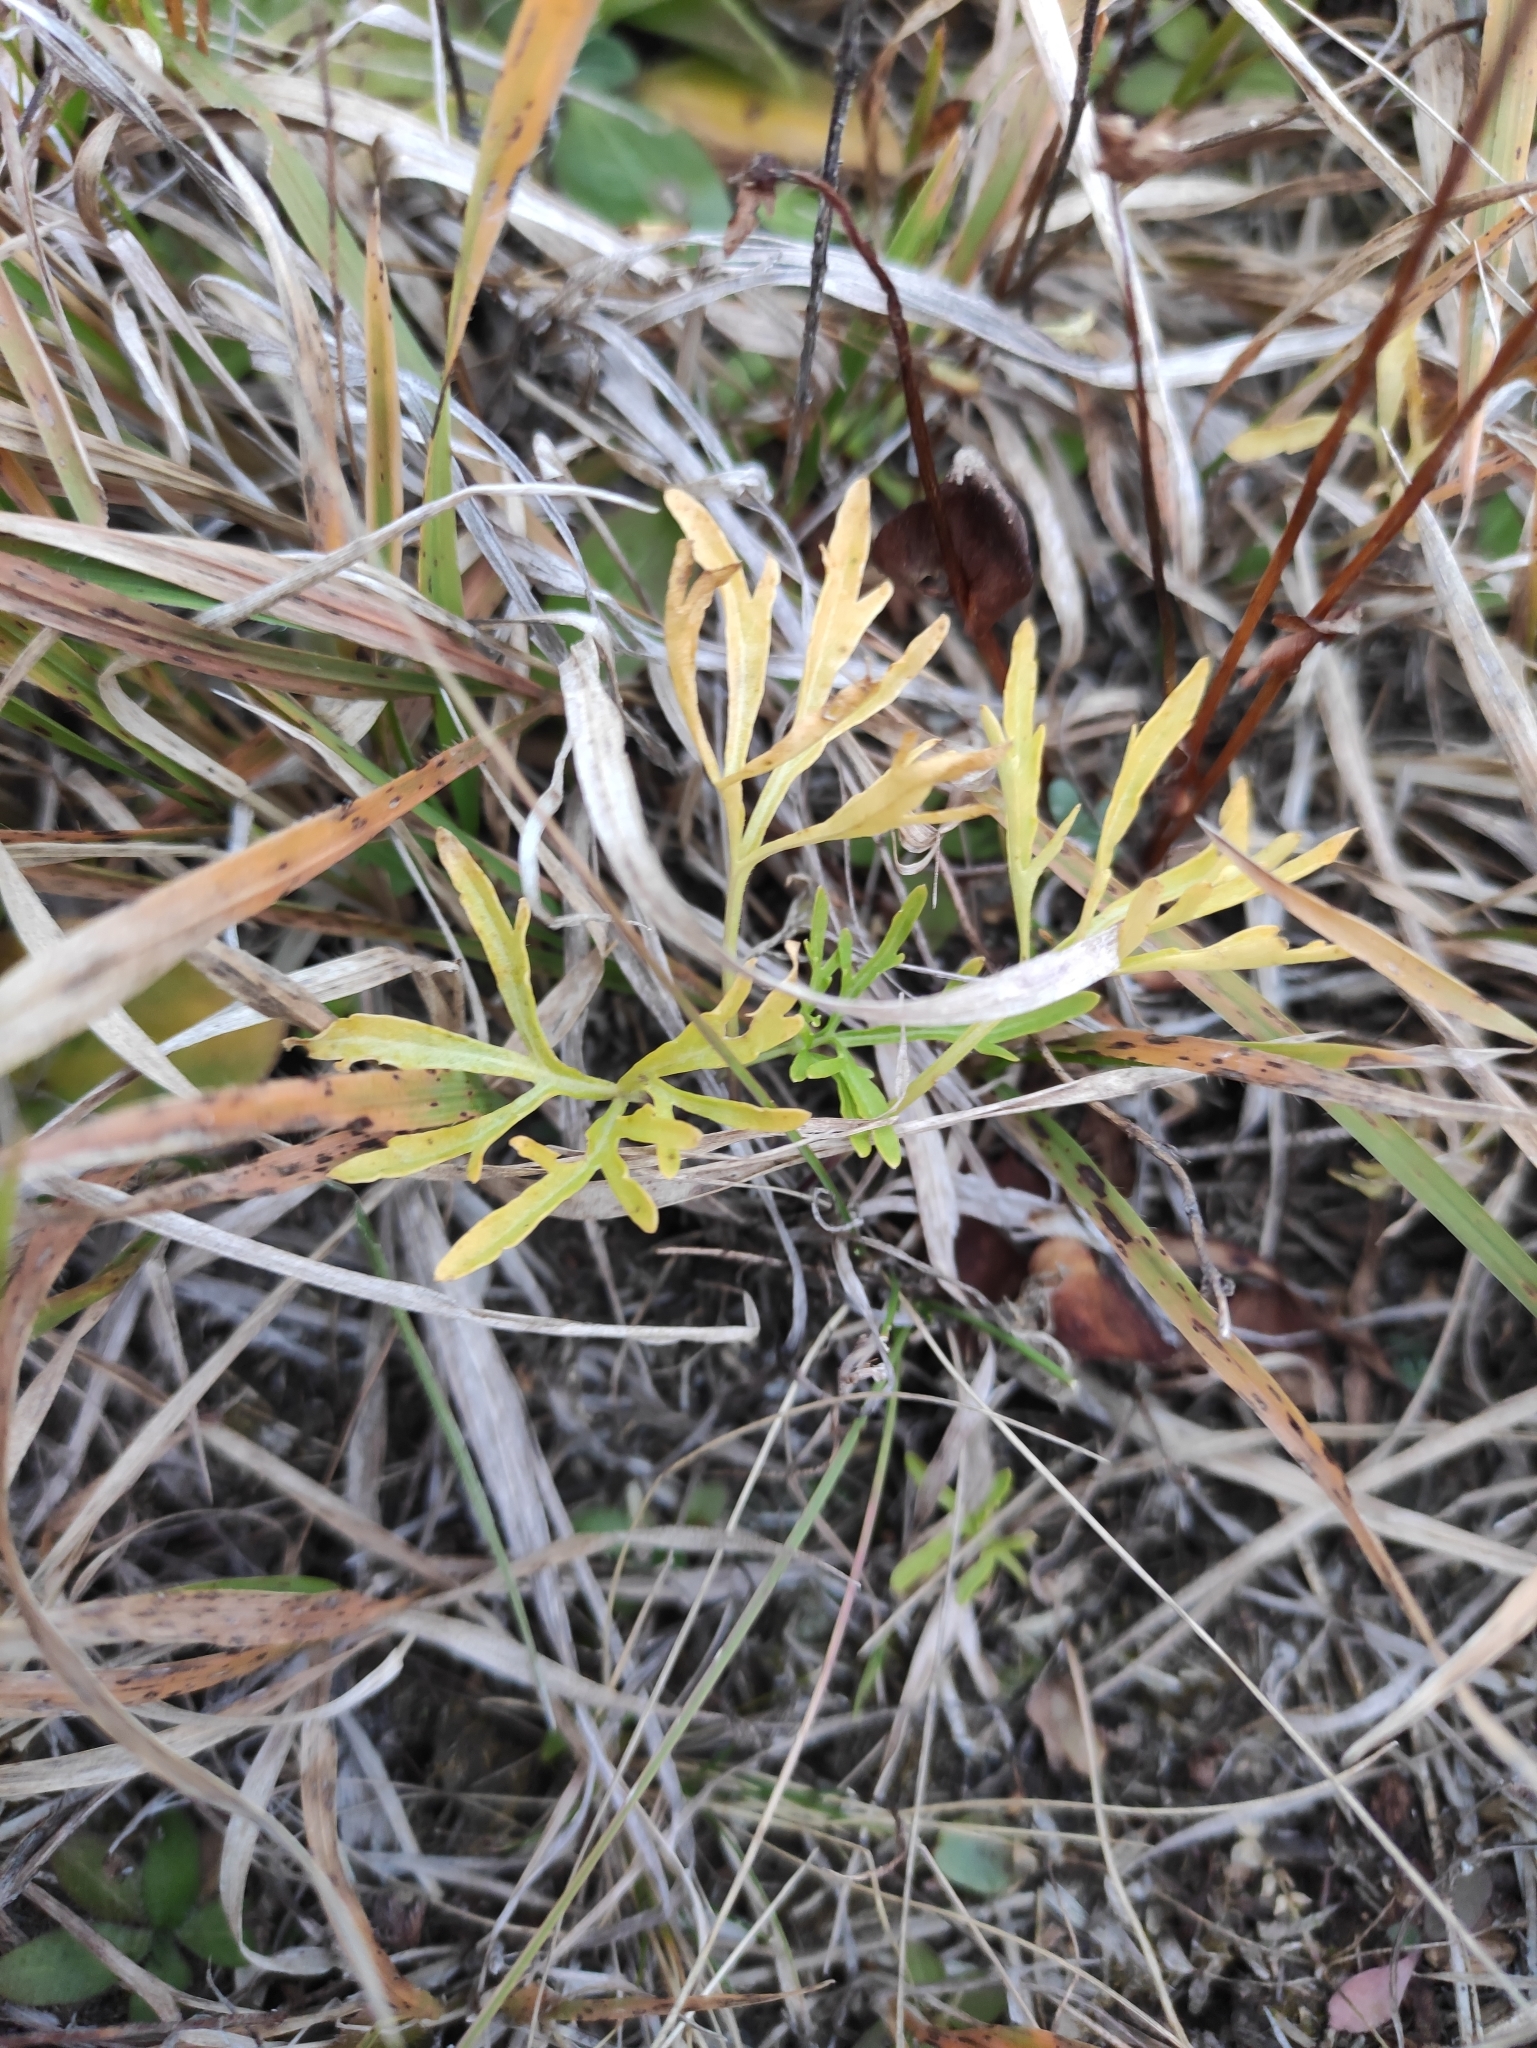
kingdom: Plantae
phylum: Tracheophyta
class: Magnoliopsida
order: Malpighiales
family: Violaceae
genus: Viola
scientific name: Viola multifida
